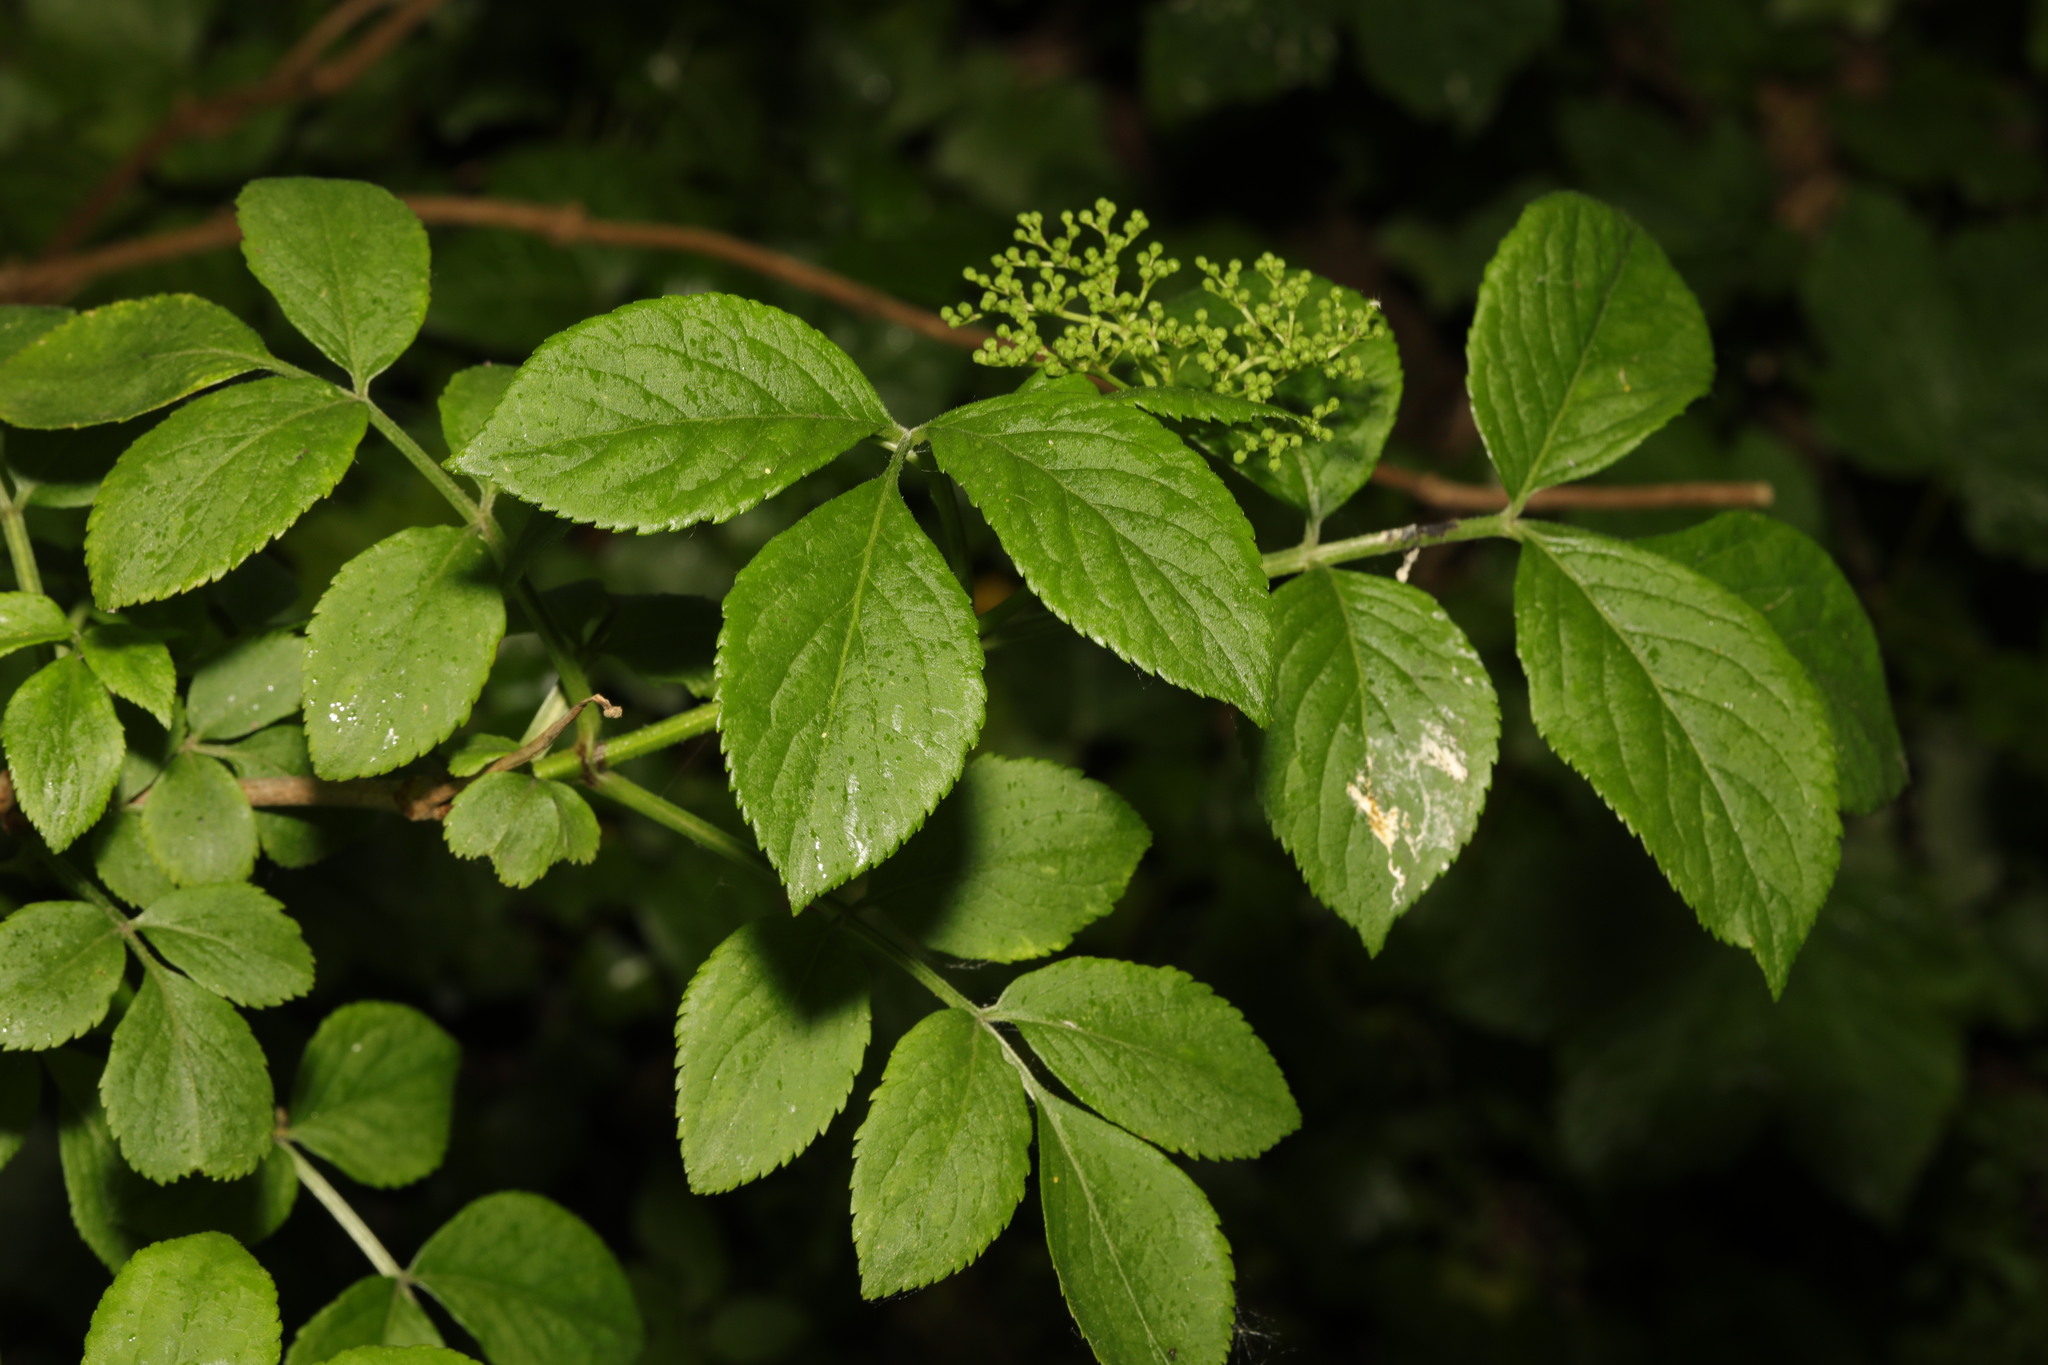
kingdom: Plantae
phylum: Tracheophyta
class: Magnoliopsida
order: Dipsacales
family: Viburnaceae
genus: Sambucus
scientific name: Sambucus nigra
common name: Elder
